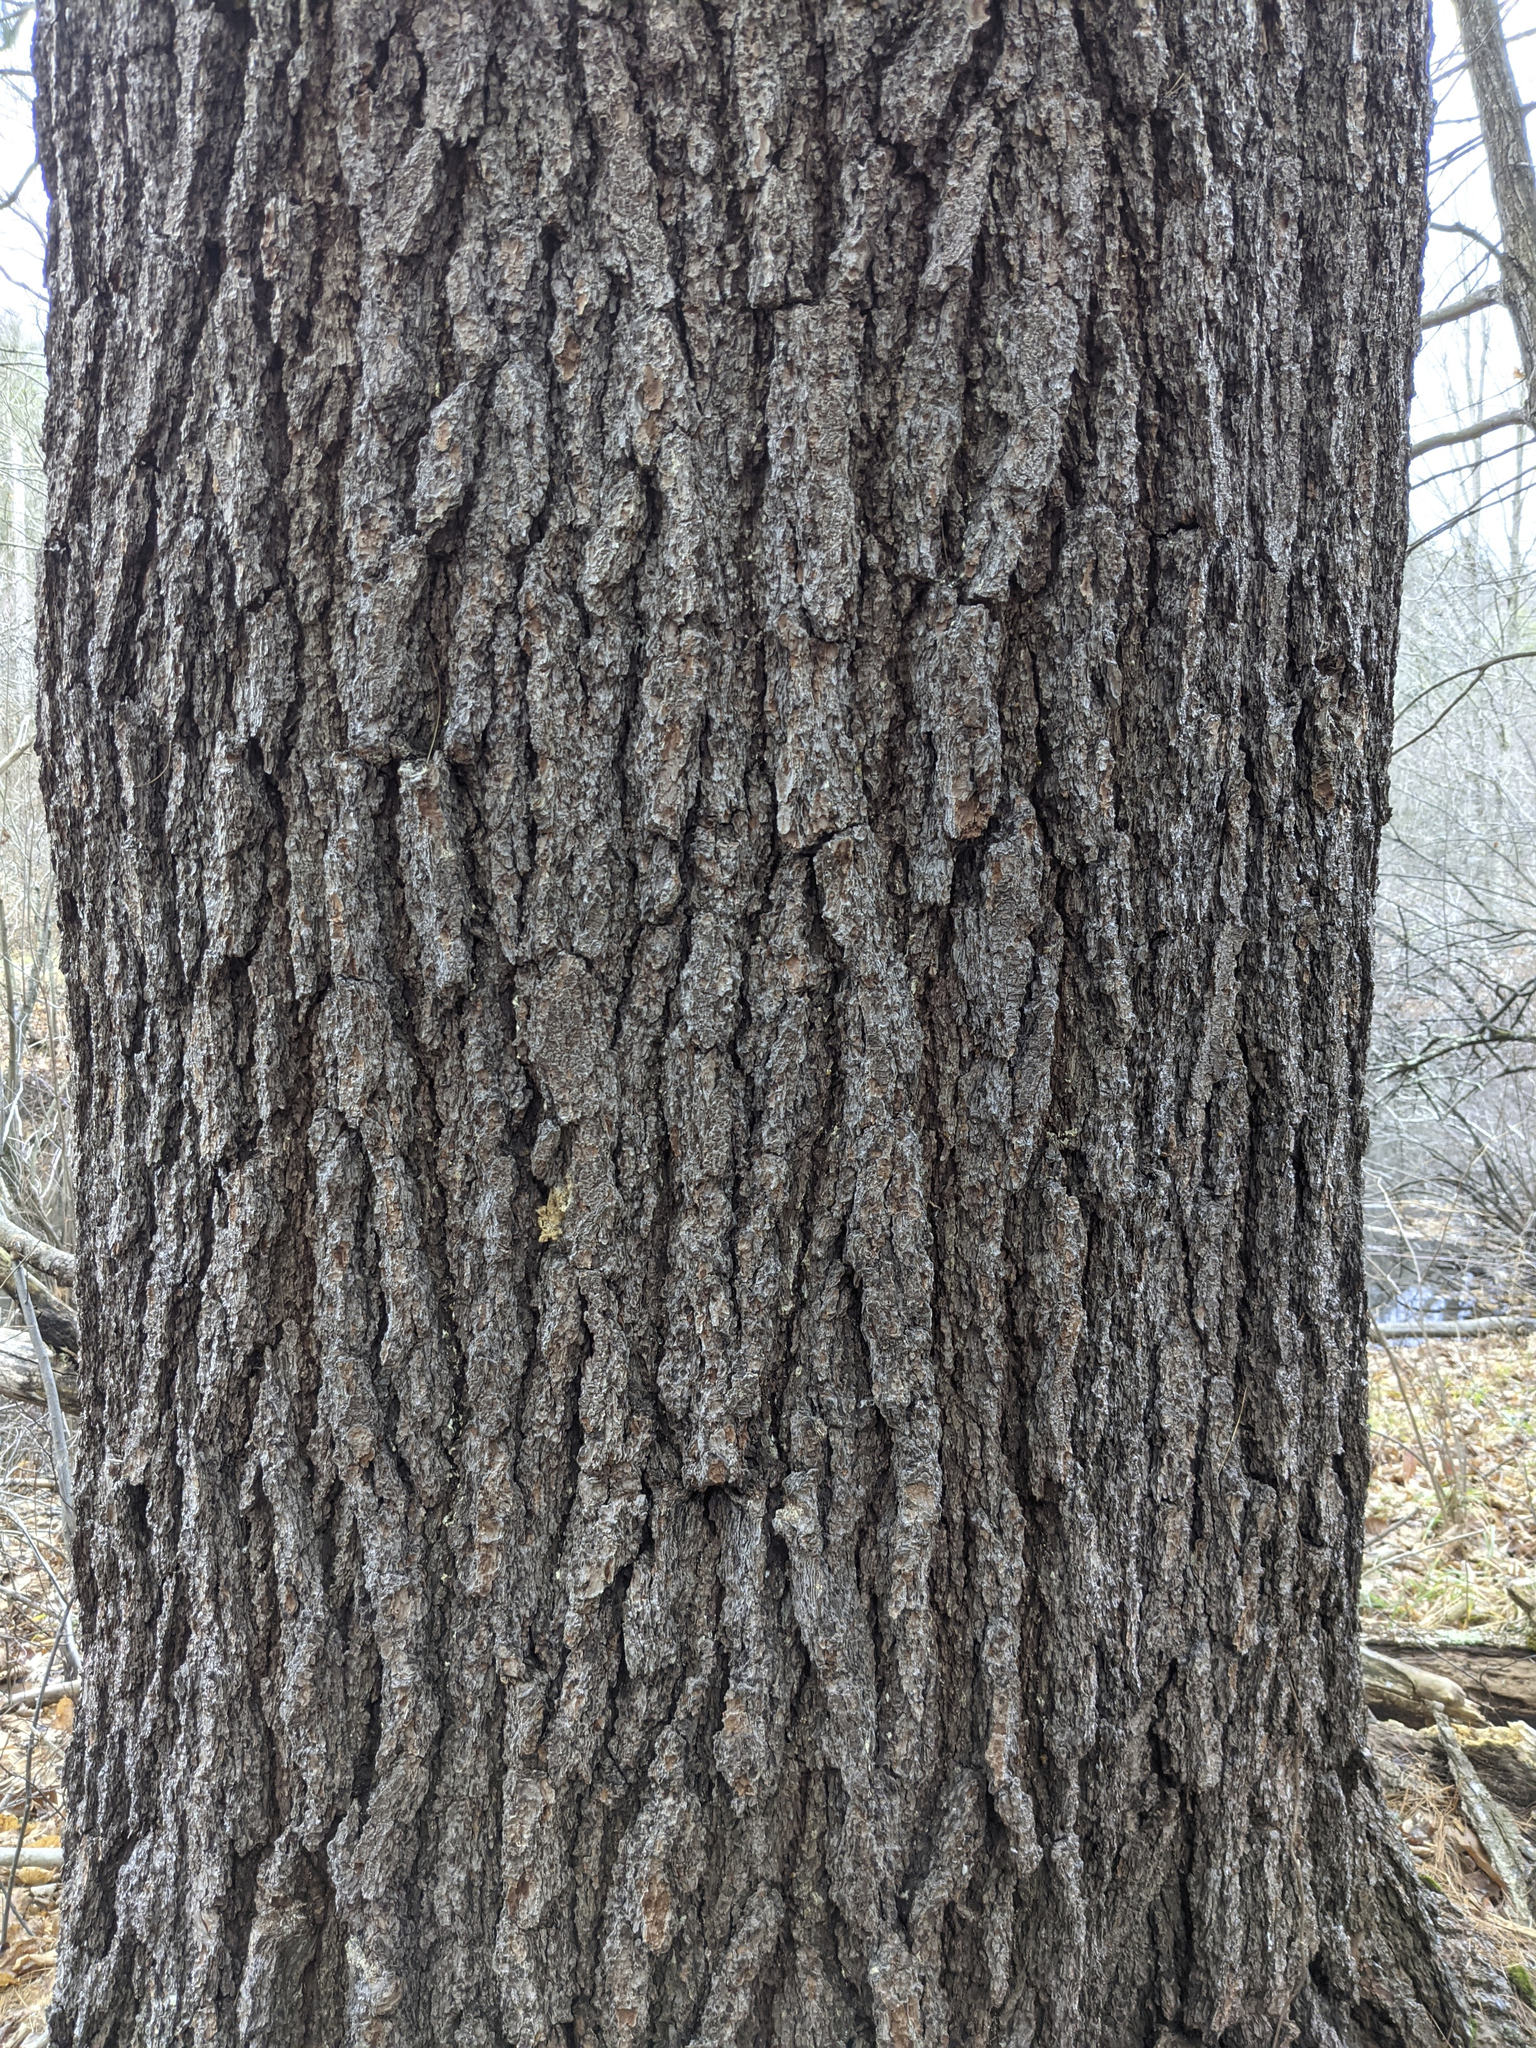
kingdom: Plantae
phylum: Tracheophyta
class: Pinopsida
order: Pinales
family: Pinaceae
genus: Pinus
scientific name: Pinus strobus
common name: Weymouth pine
